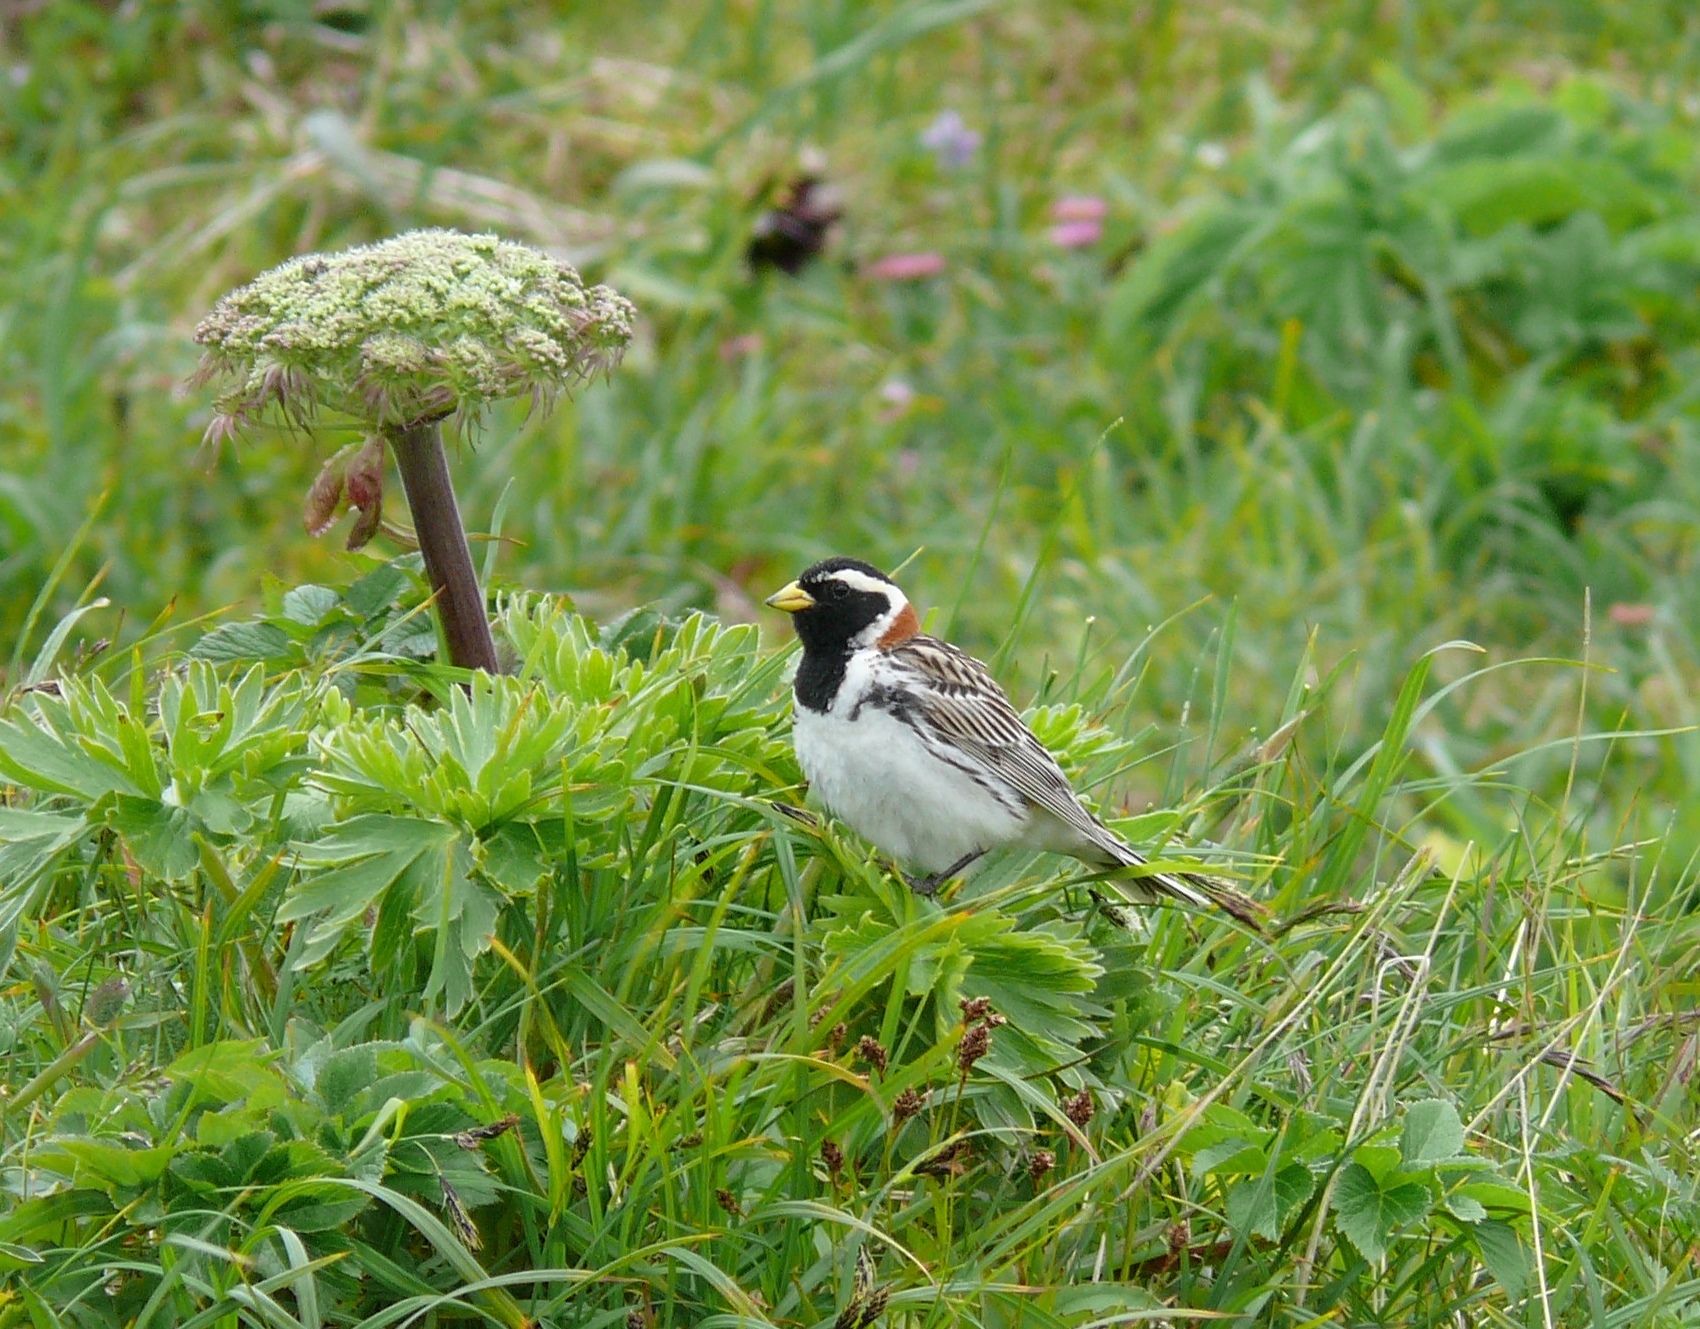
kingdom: Animalia
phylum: Chordata
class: Aves
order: Passeriformes
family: Calcariidae
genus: Calcarius
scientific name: Calcarius lapponicus
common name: Lapland longspur
